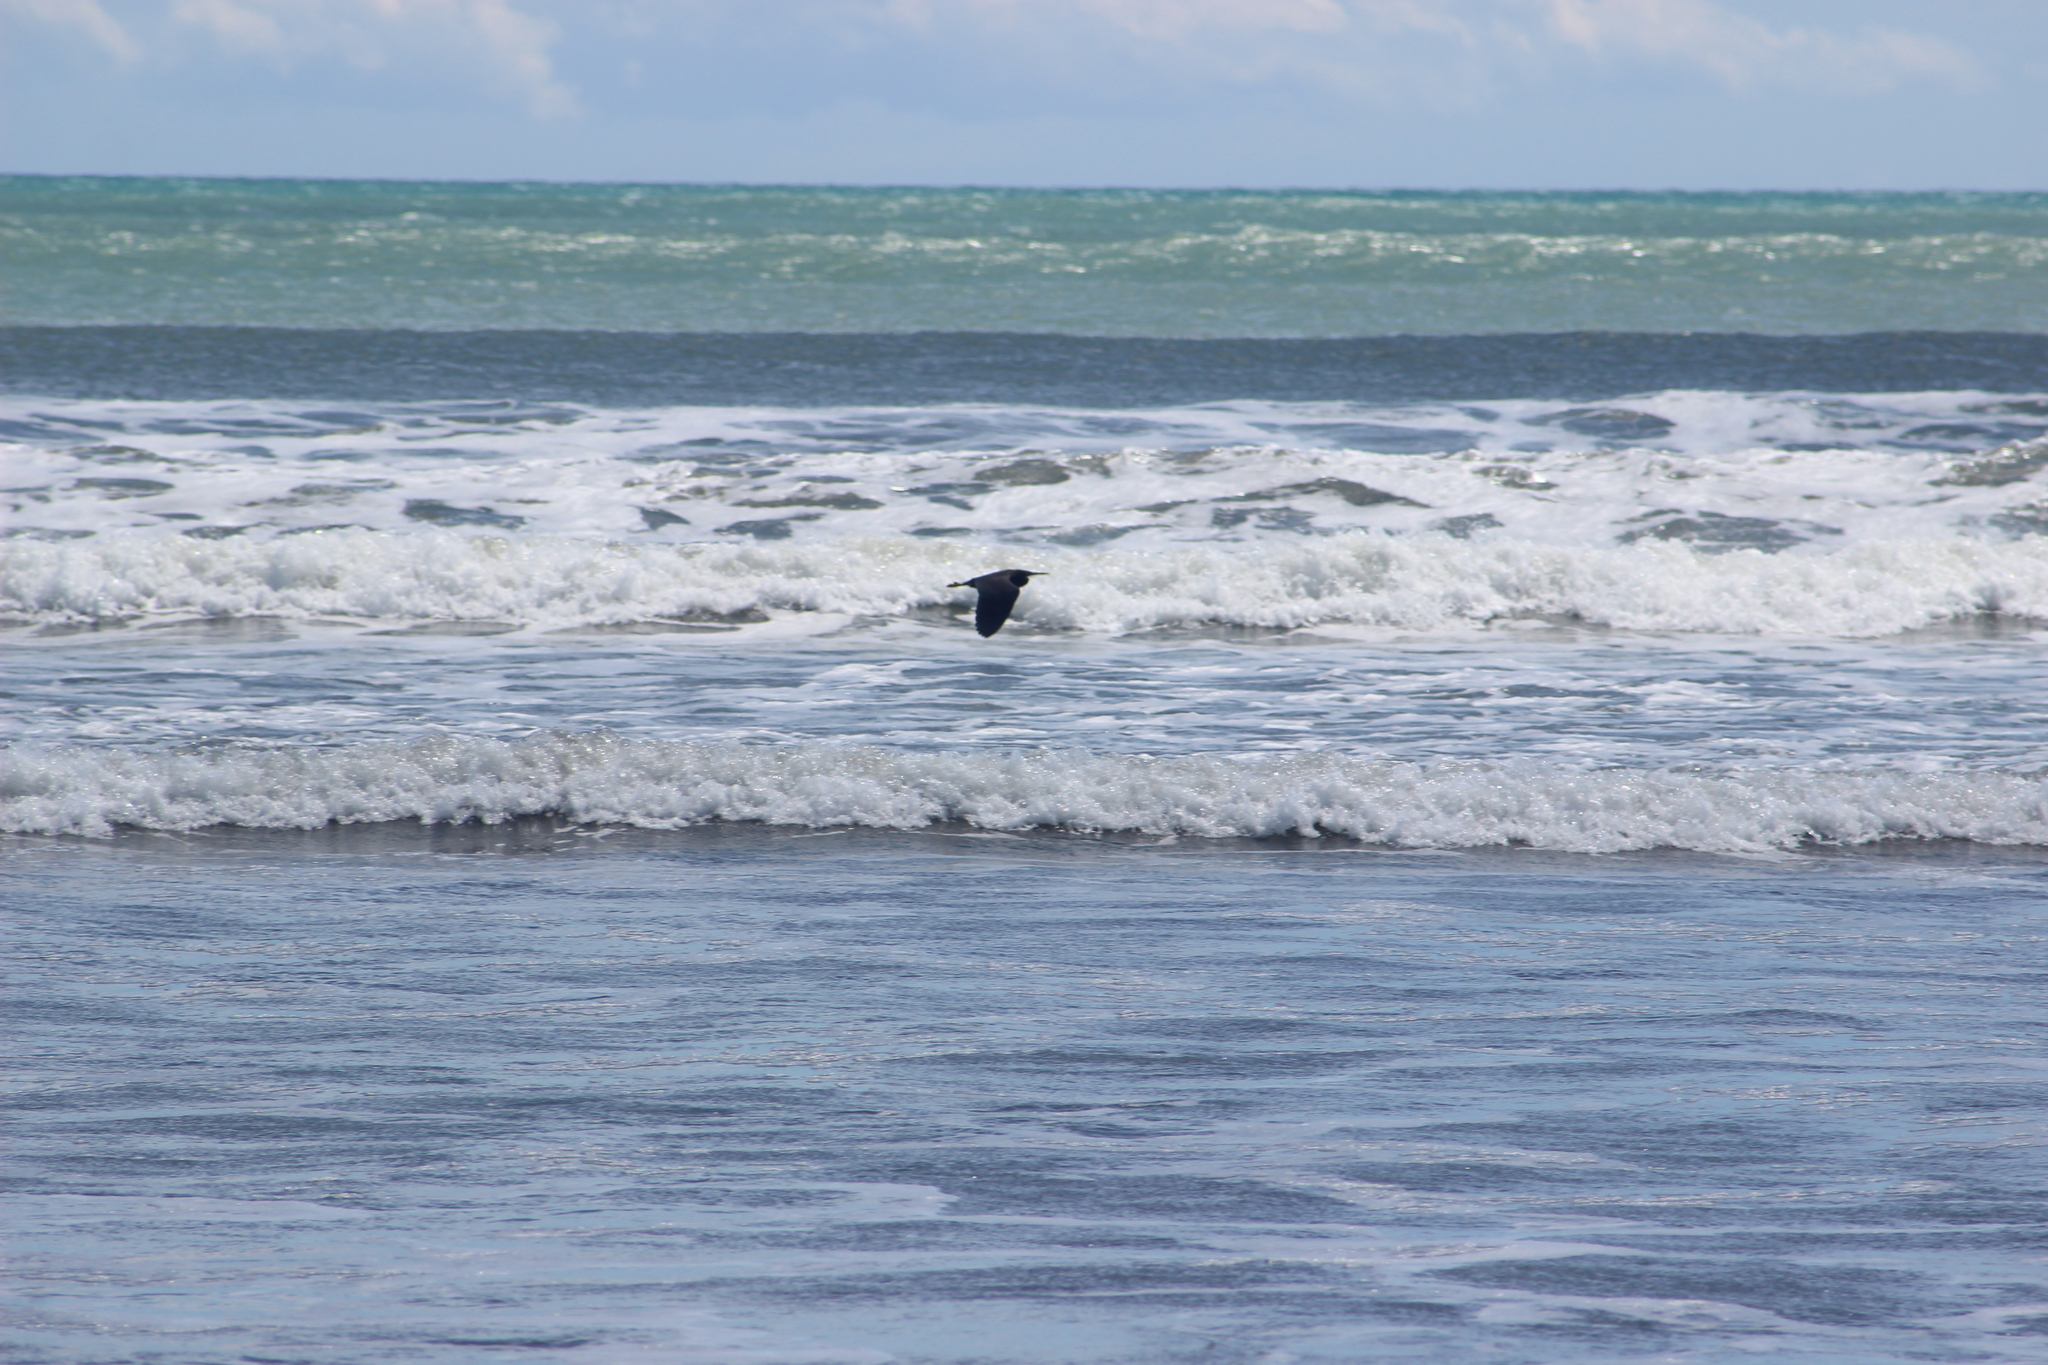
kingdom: Animalia
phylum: Chordata
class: Aves
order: Pelecaniformes
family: Ardeidae
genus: Egretta
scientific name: Egretta sacra
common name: Pacific reef heron
